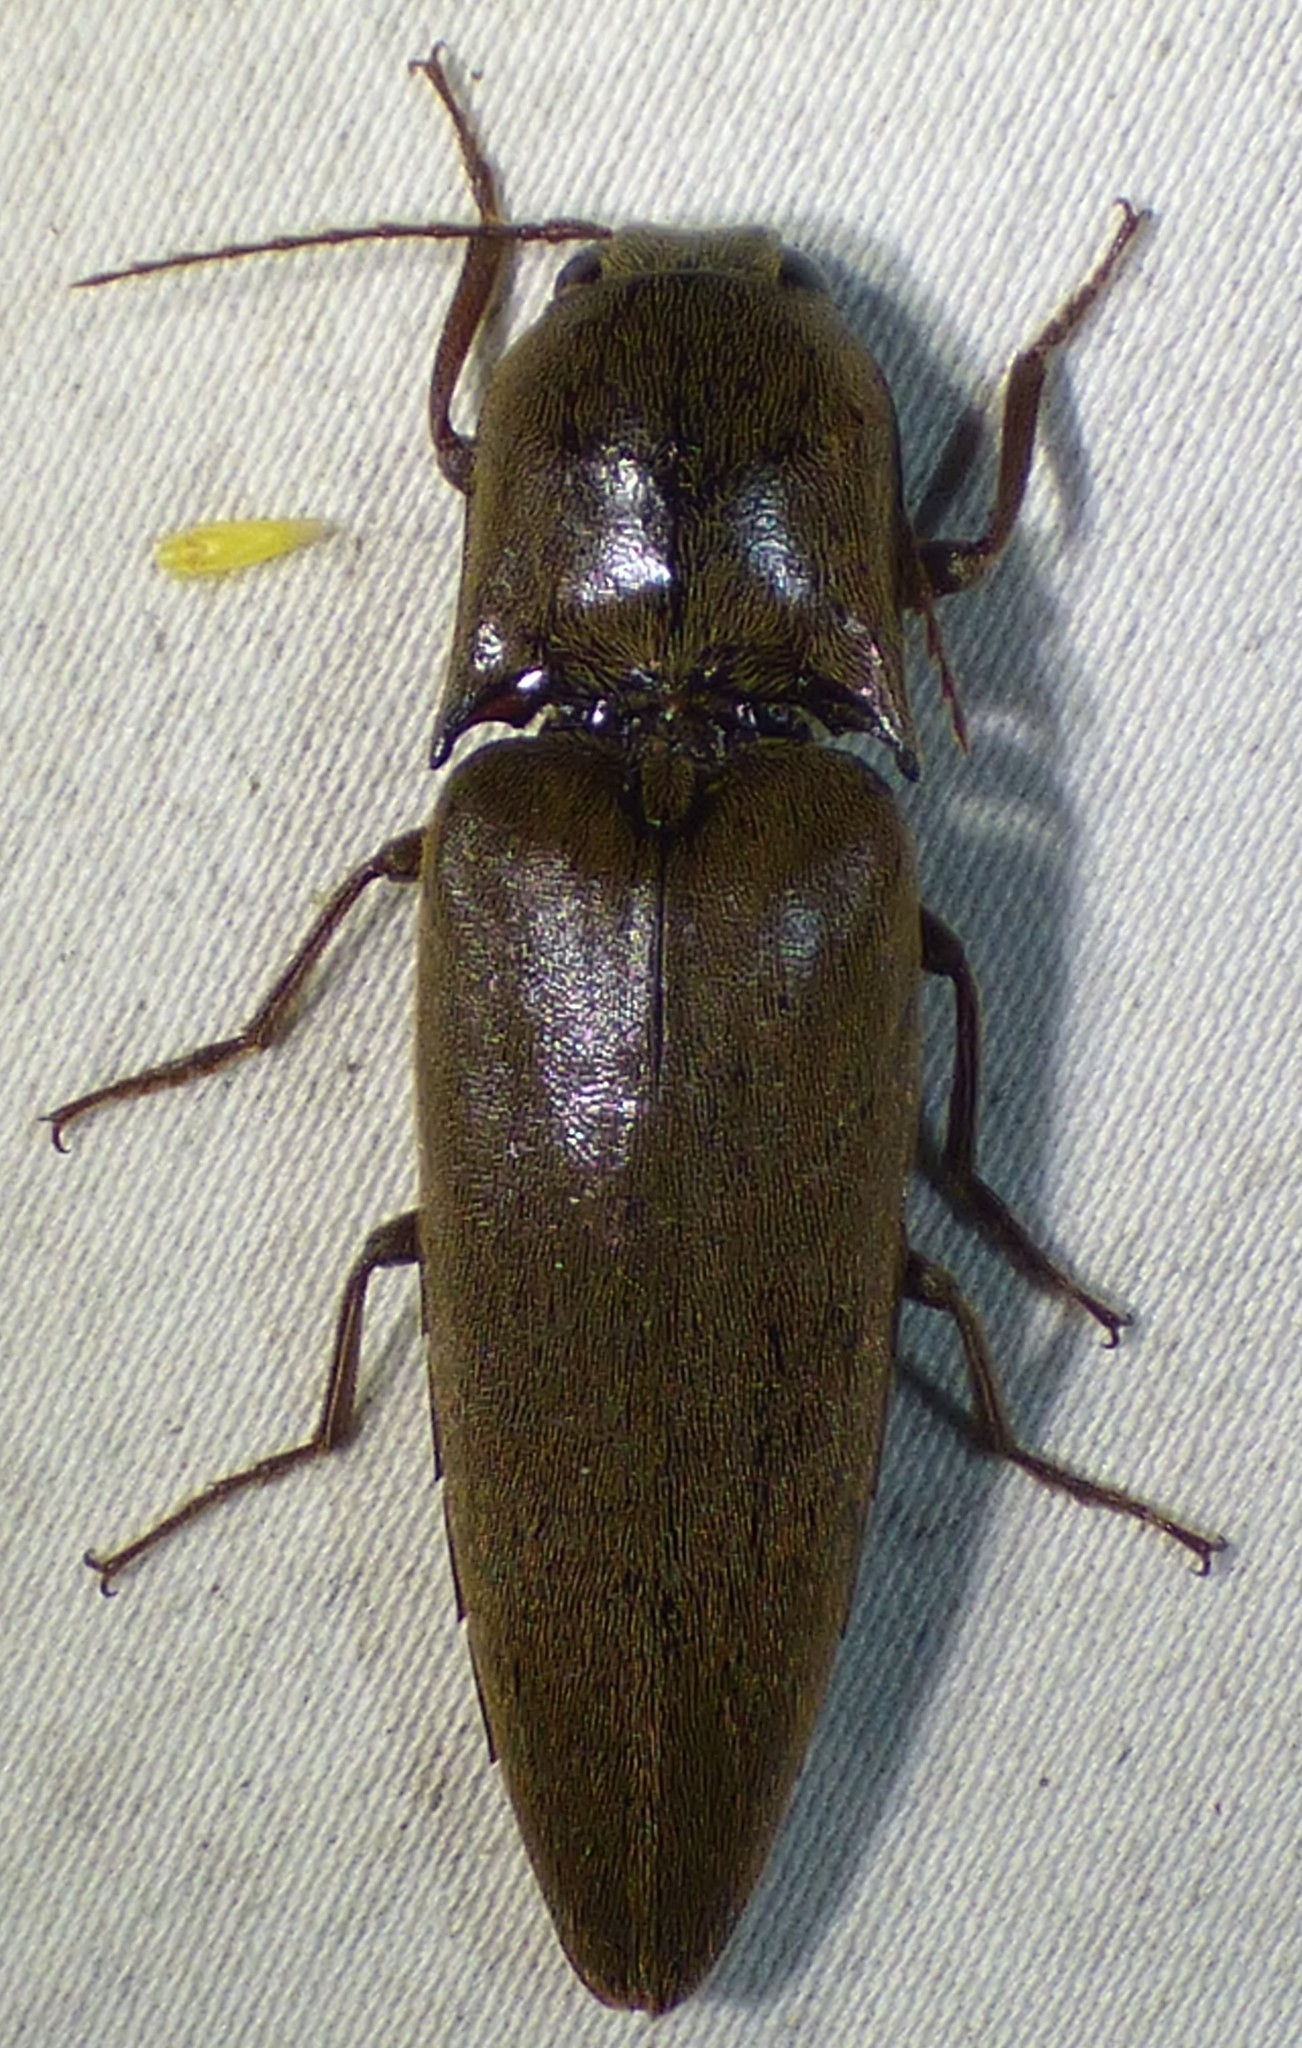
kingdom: Animalia
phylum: Arthropoda
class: Insecta
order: Coleoptera
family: Elateridae
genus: Orthostethus
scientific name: Orthostethus infuscatus
